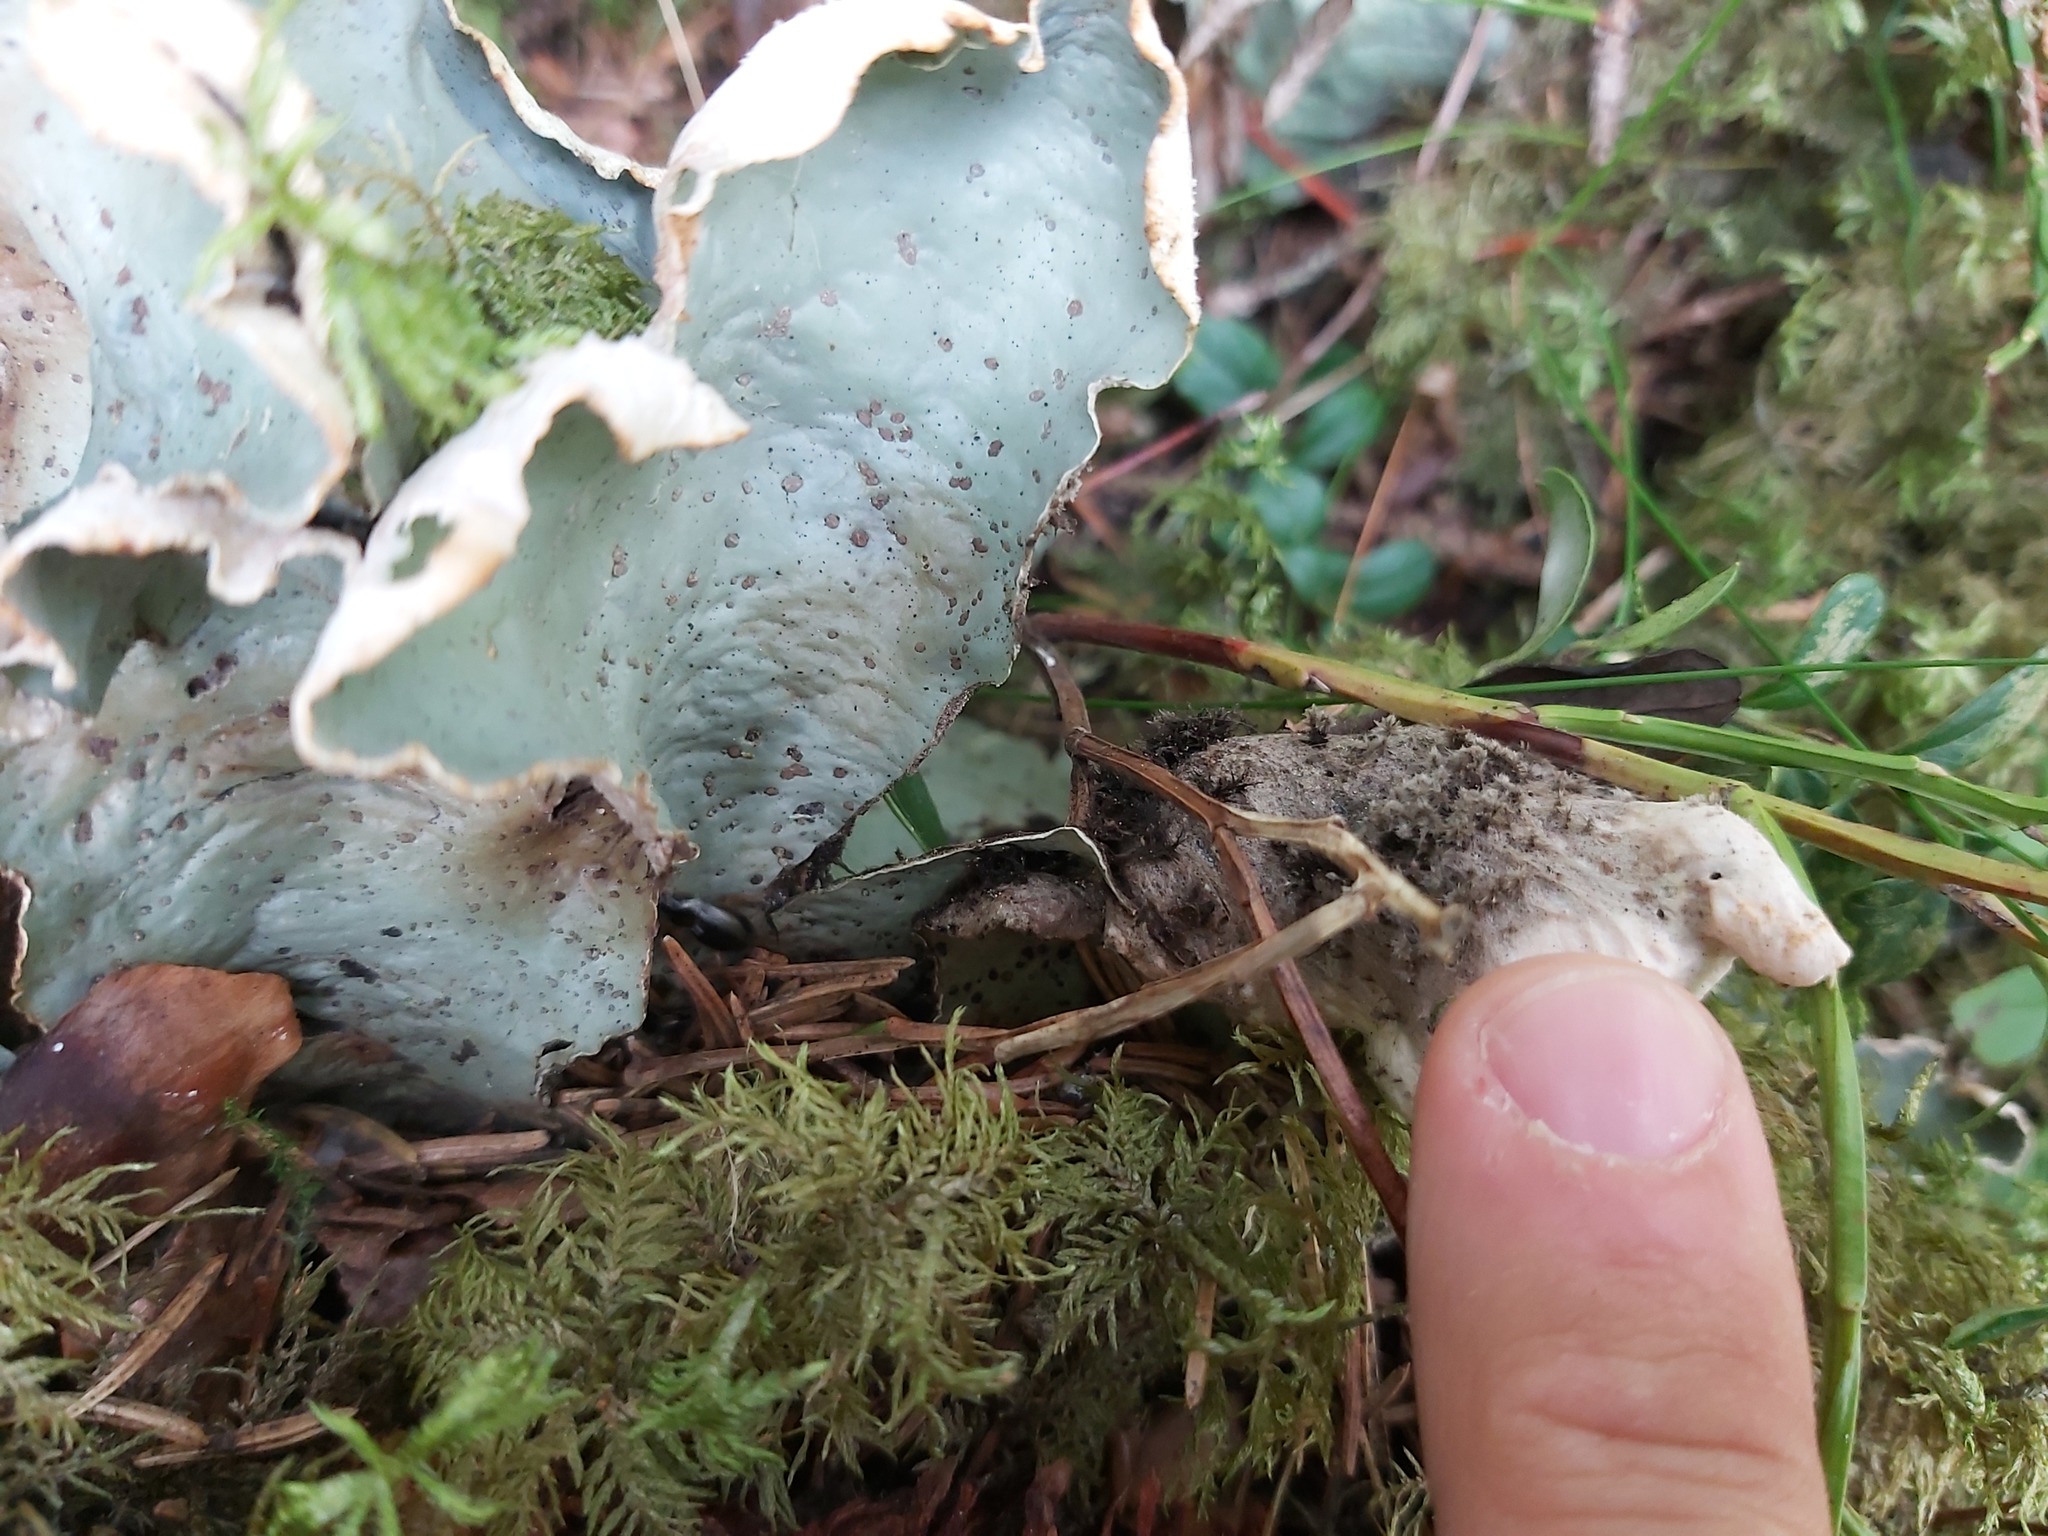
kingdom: Fungi
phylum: Ascomycota
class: Lecanoromycetes
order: Peltigerales
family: Peltigeraceae
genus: Peltigera
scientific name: Peltigera aphthosa
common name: Common freckle pelt lichen
